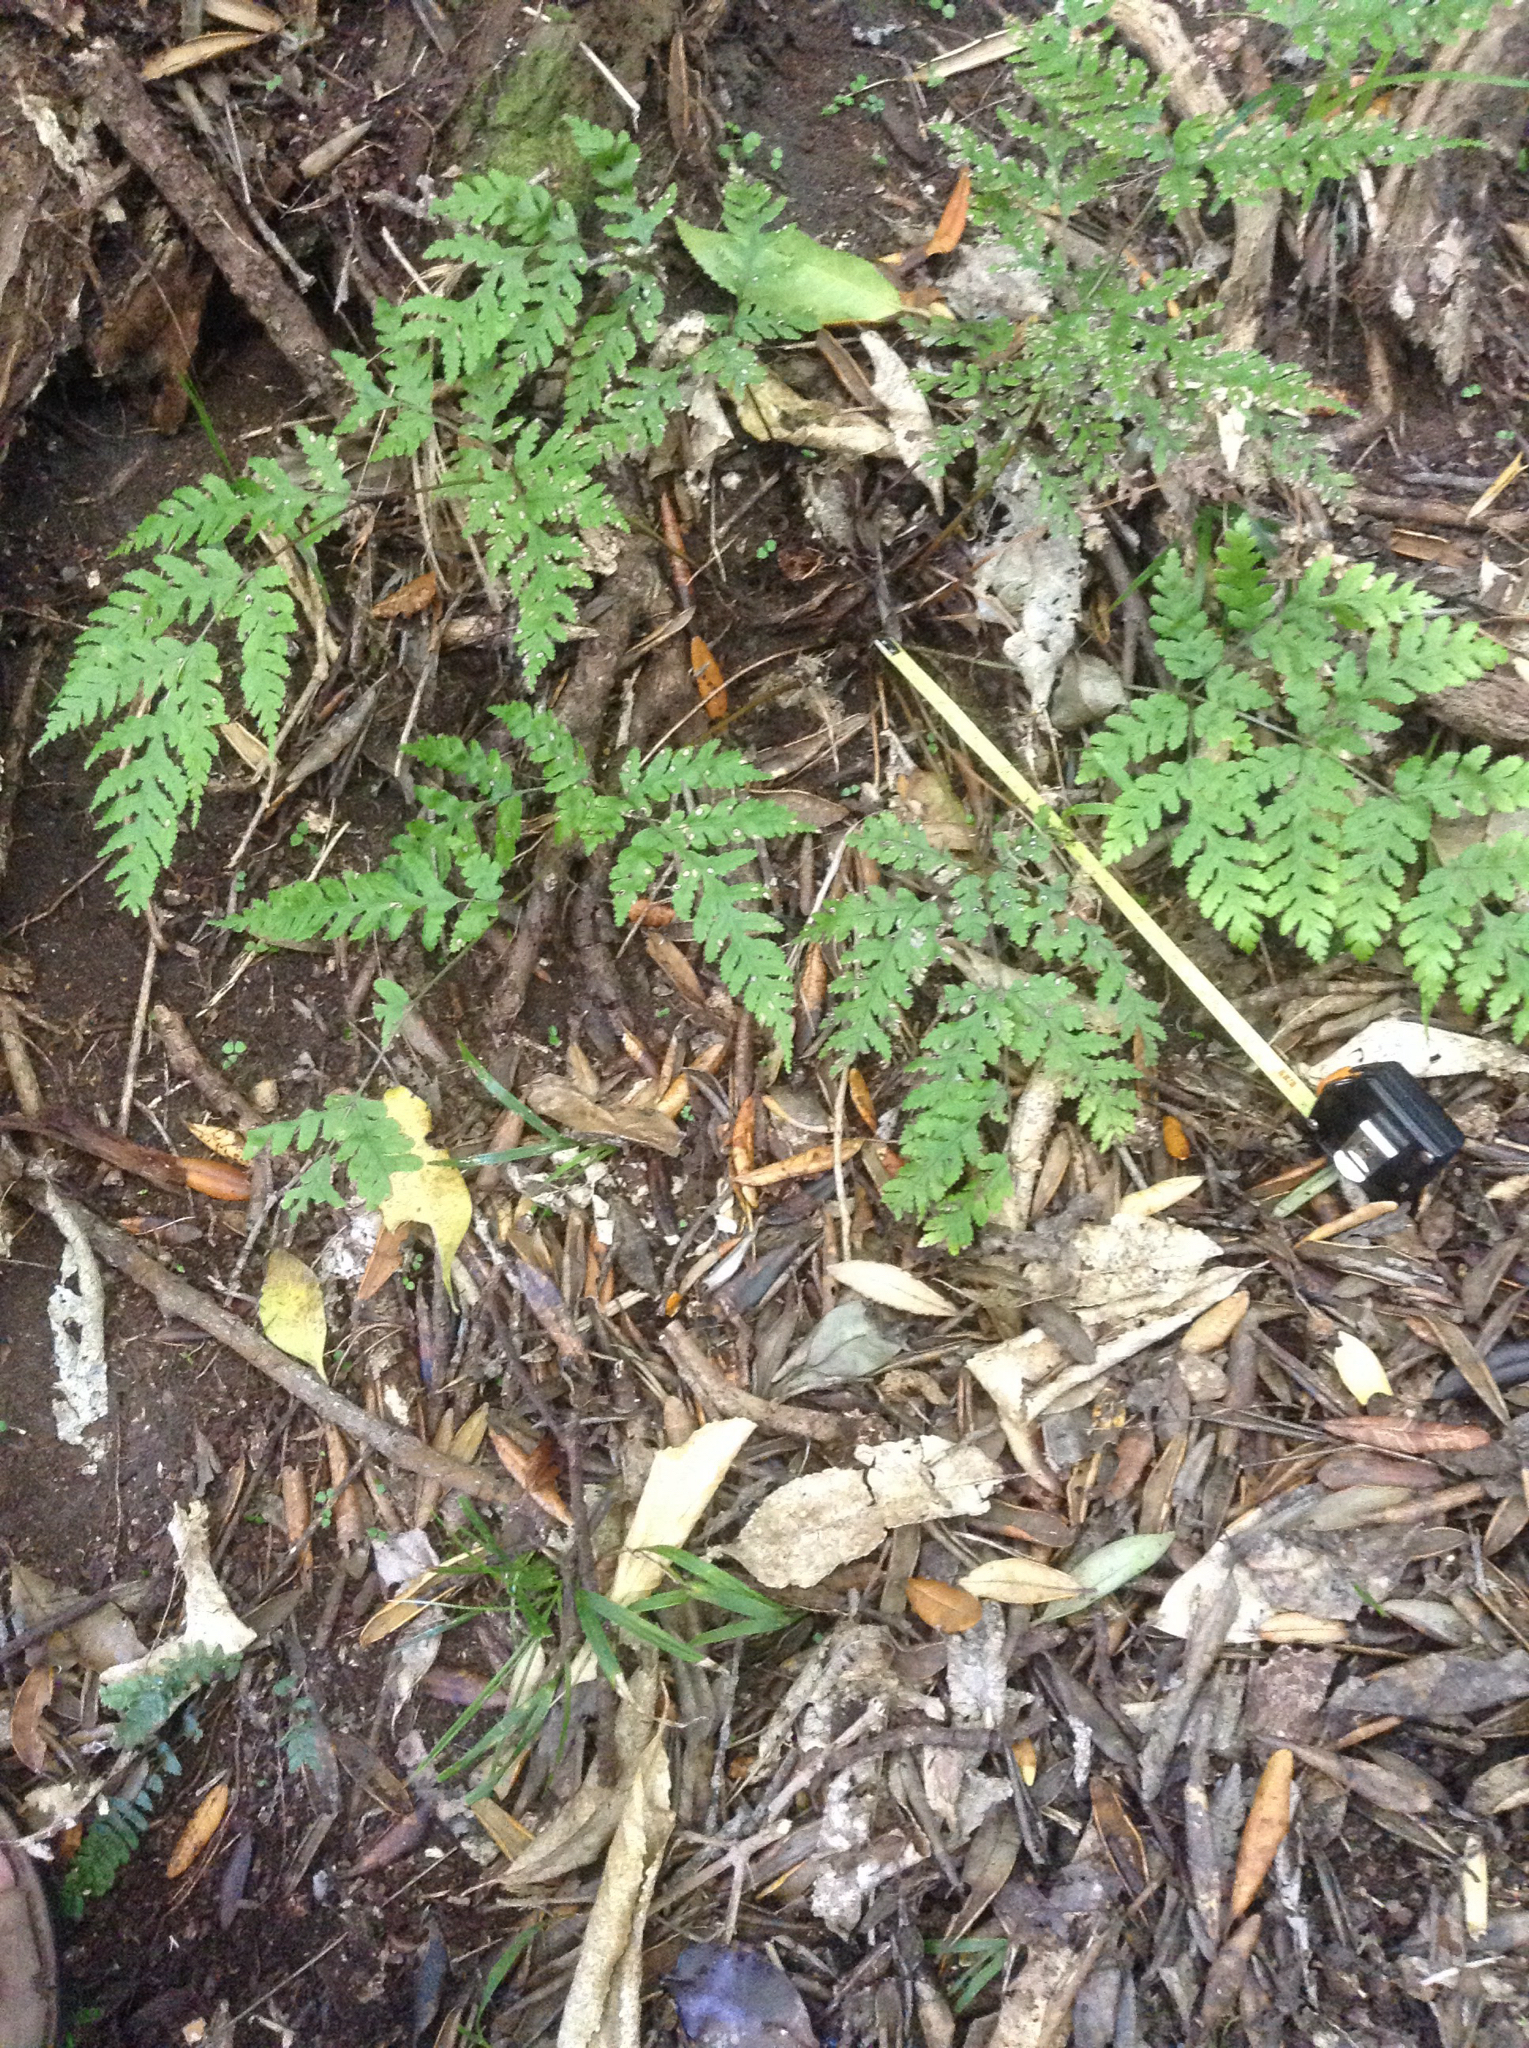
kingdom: Plantae
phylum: Tracheophyta
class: Polypodiopsida
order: Polypodiales
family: Pteridaceae
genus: Pteris
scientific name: Pteris macilenta
